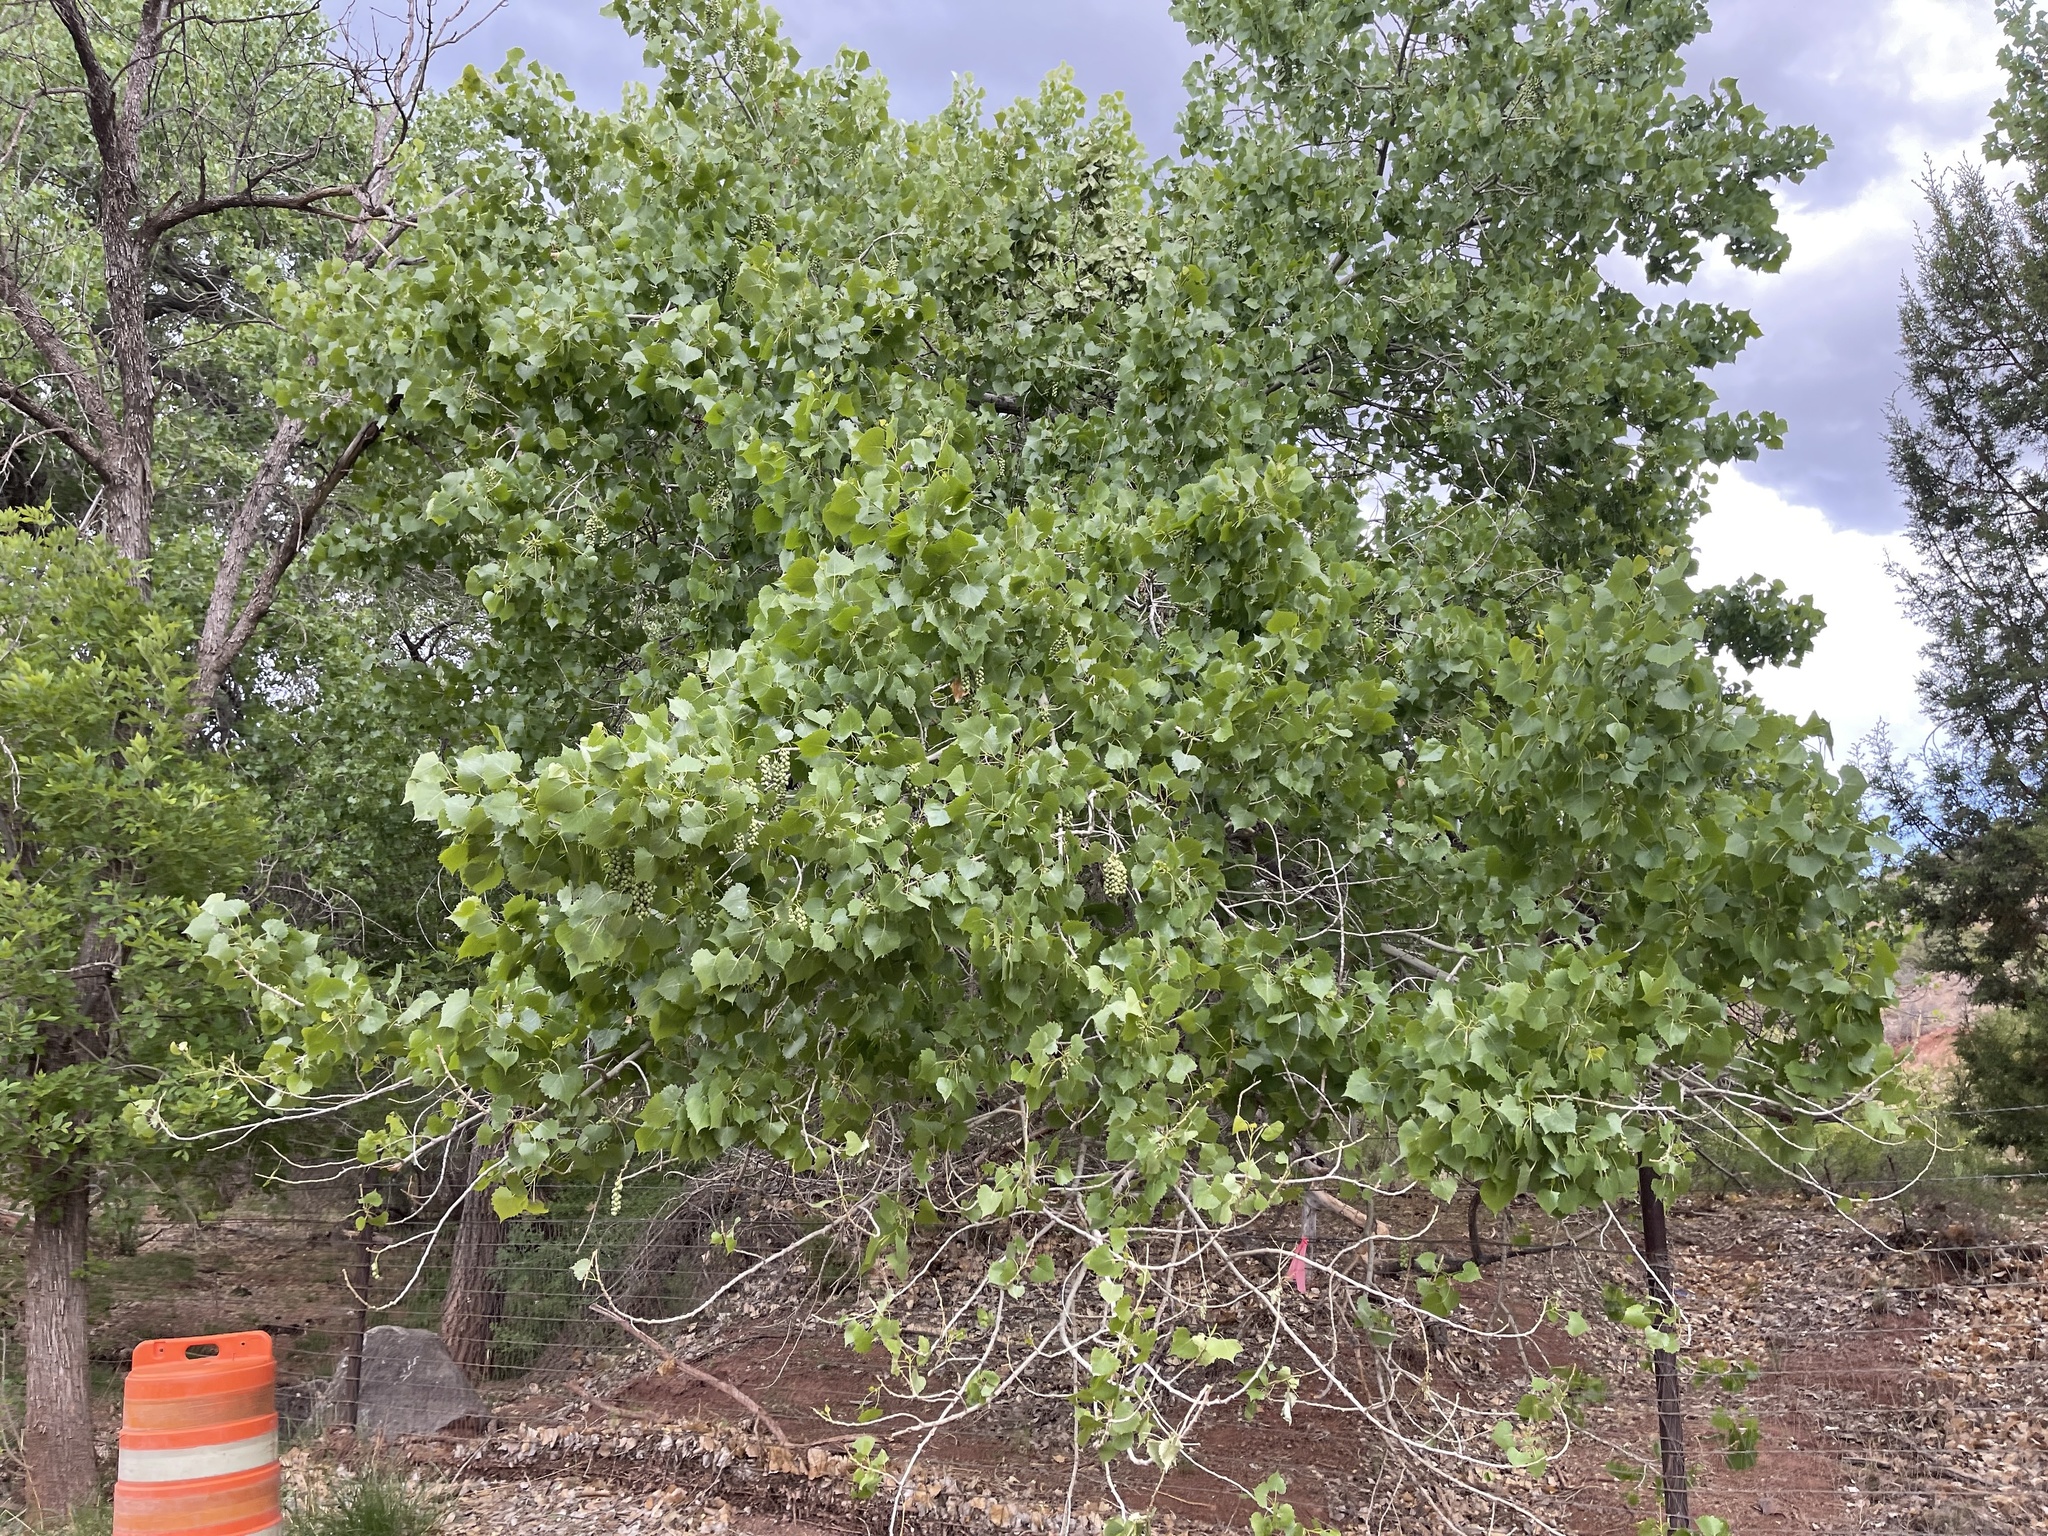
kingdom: Plantae
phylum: Tracheophyta
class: Magnoliopsida
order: Malpighiales
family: Salicaceae
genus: Populus
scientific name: Populus fremontii
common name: Fremont's cottonwood
